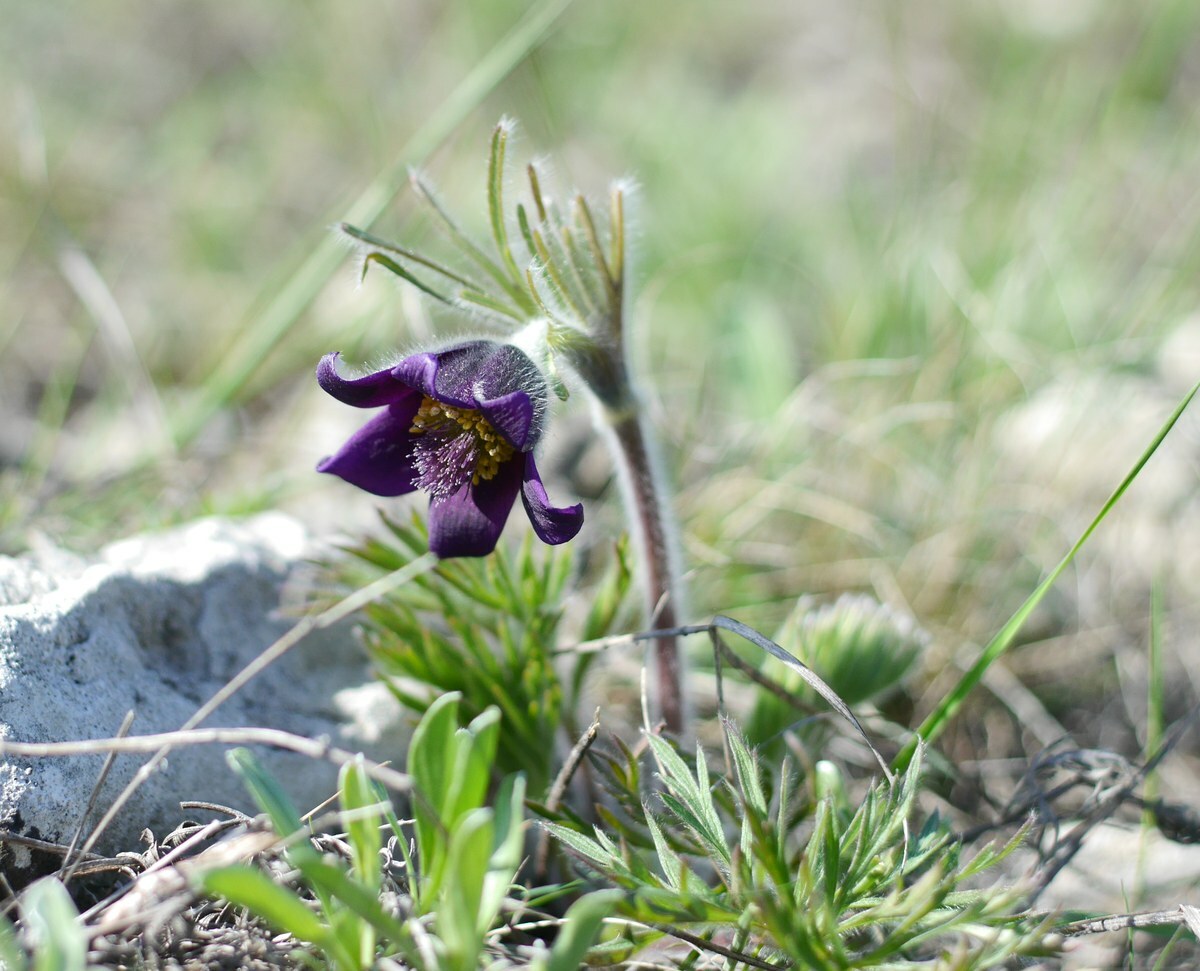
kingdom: Plantae
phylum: Tracheophyta
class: Magnoliopsida
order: Ranunculales
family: Ranunculaceae
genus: Pulsatilla
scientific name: Pulsatilla pratensis
